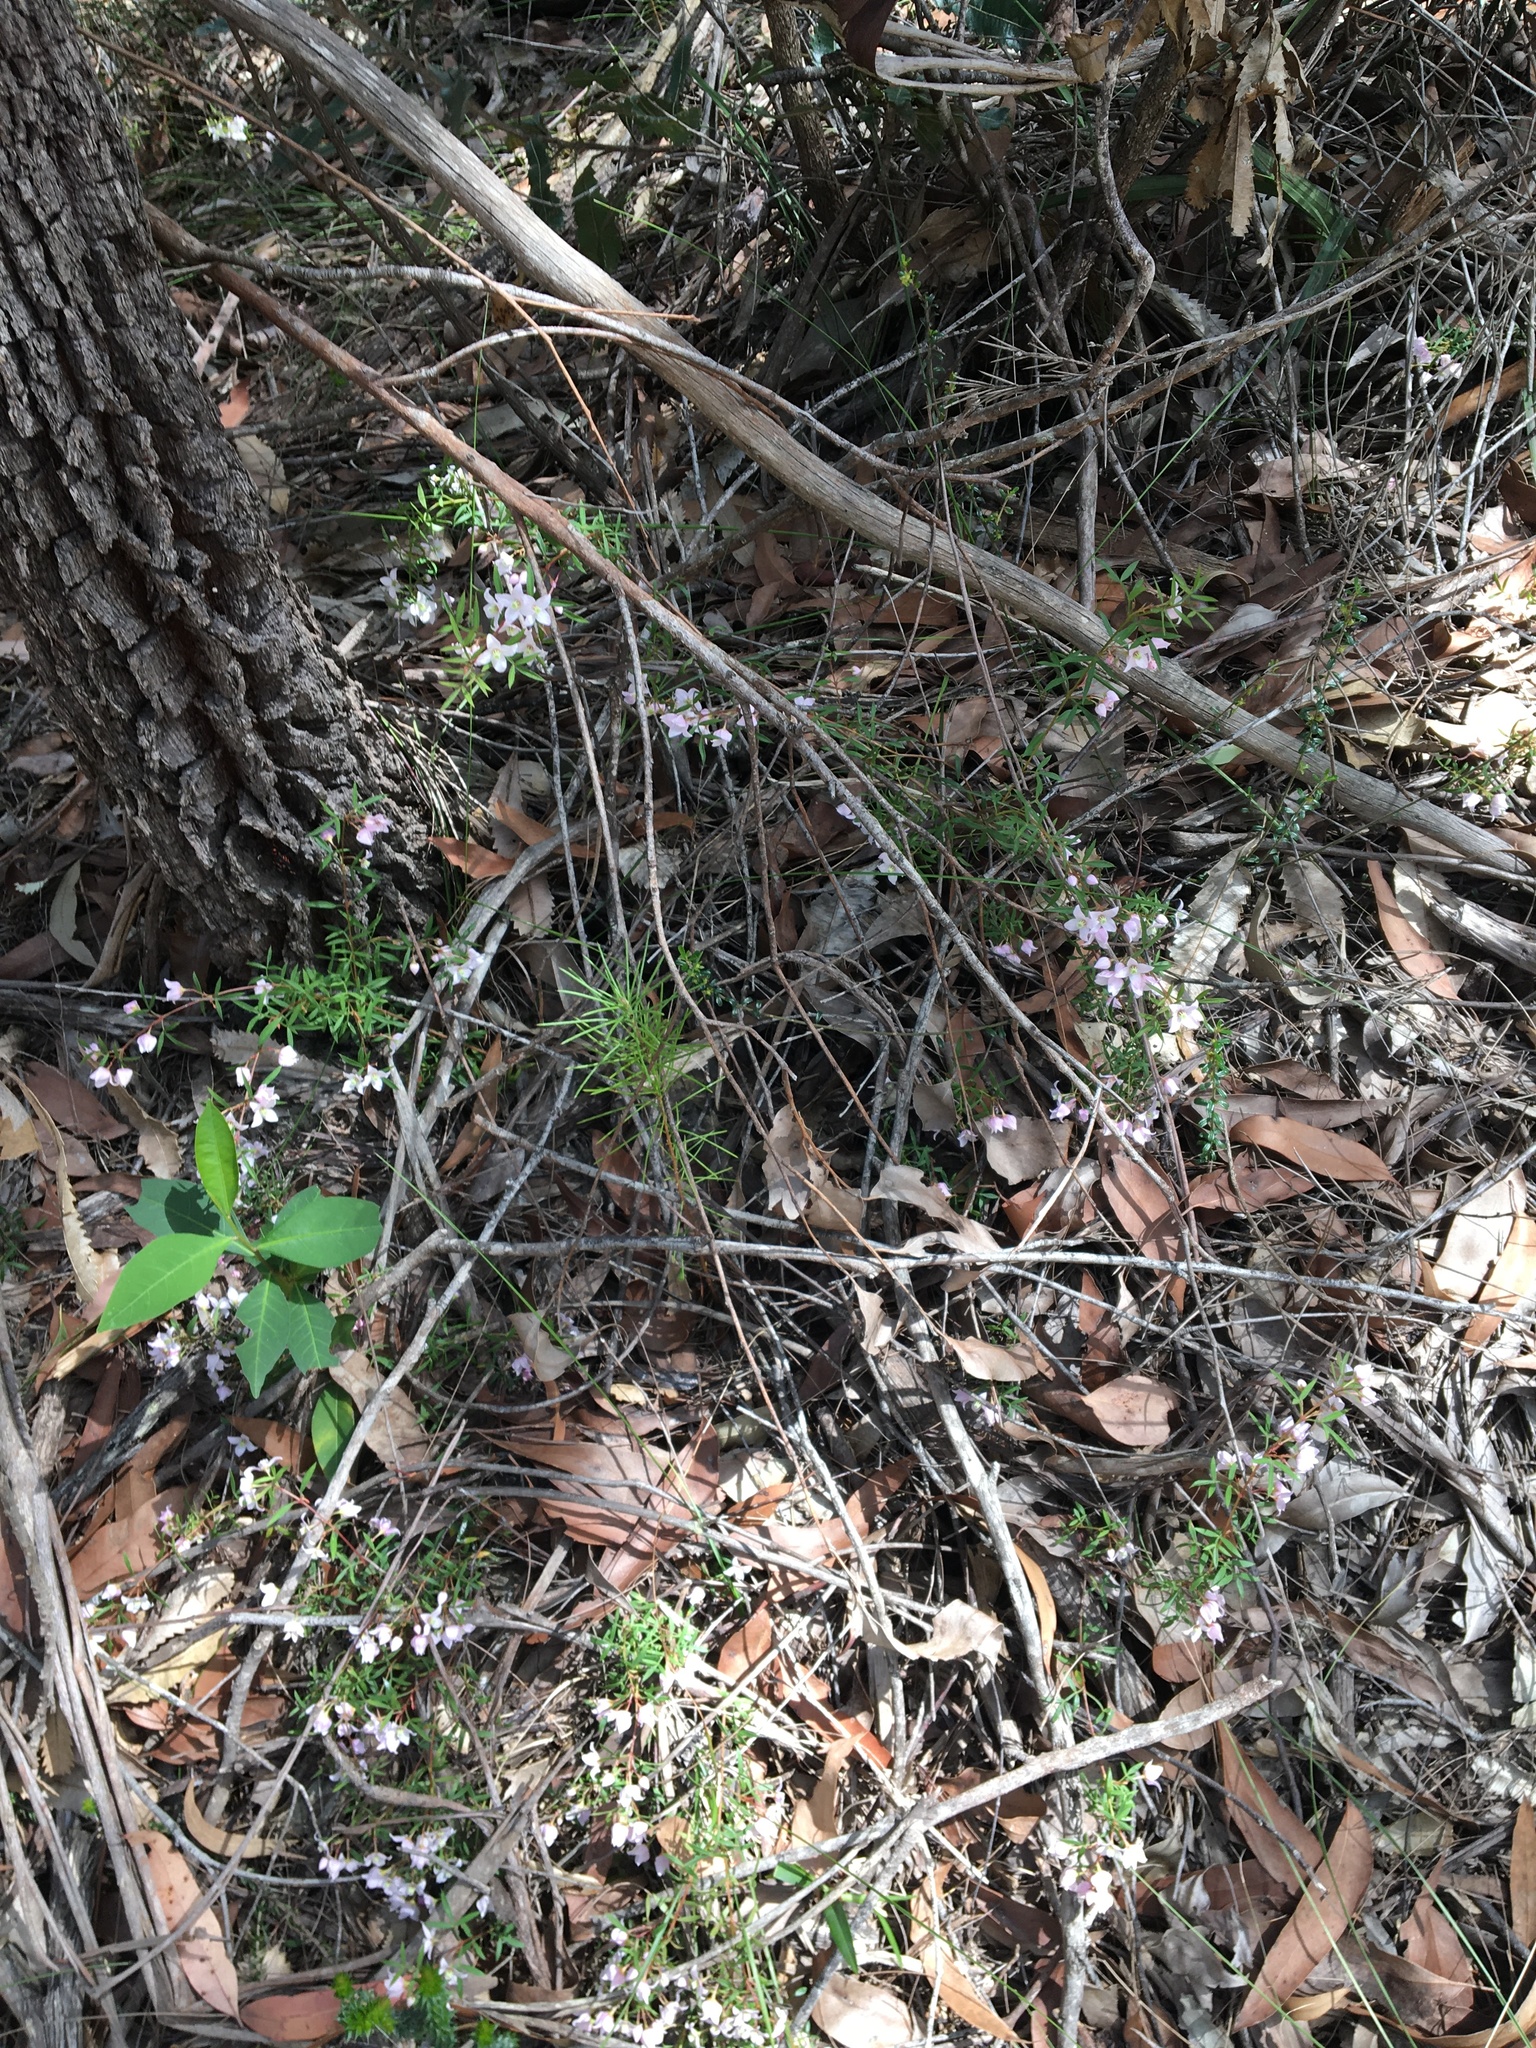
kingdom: Plantae
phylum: Tracheophyta
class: Magnoliopsida
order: Sapindales
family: Rutaceae
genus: Boronia
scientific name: Boronia floribunda
